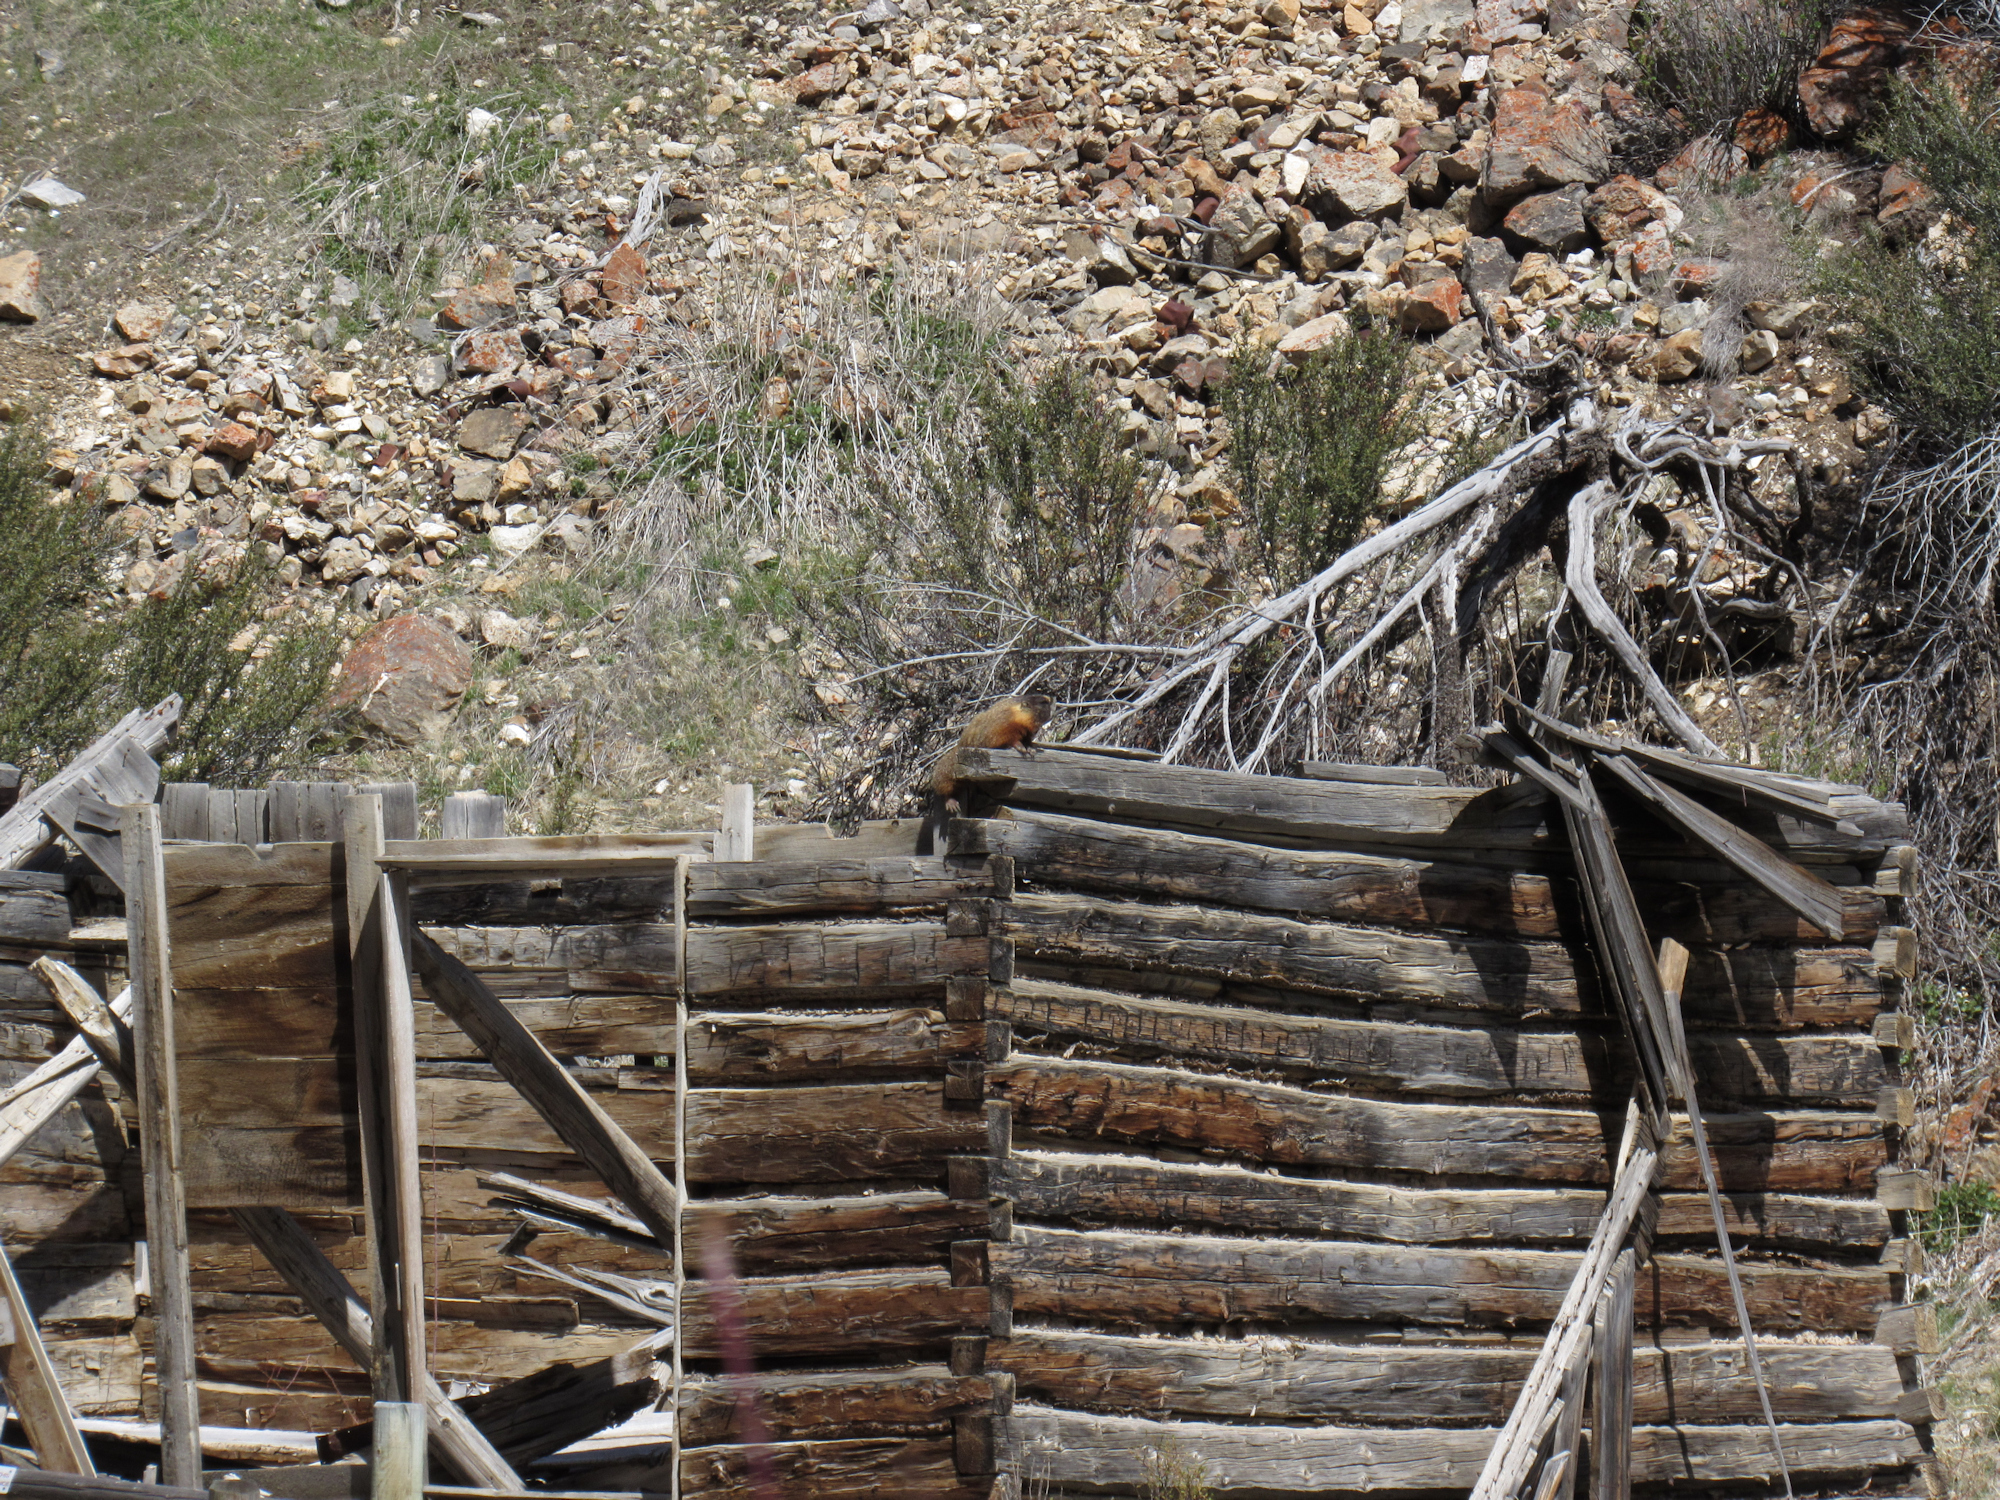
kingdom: Animalia
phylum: Chordata
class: Mammalia
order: Rodentia
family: Sciuridae
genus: Marmota
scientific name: Marmota flaviventris
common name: Yellow-bellied marmot
